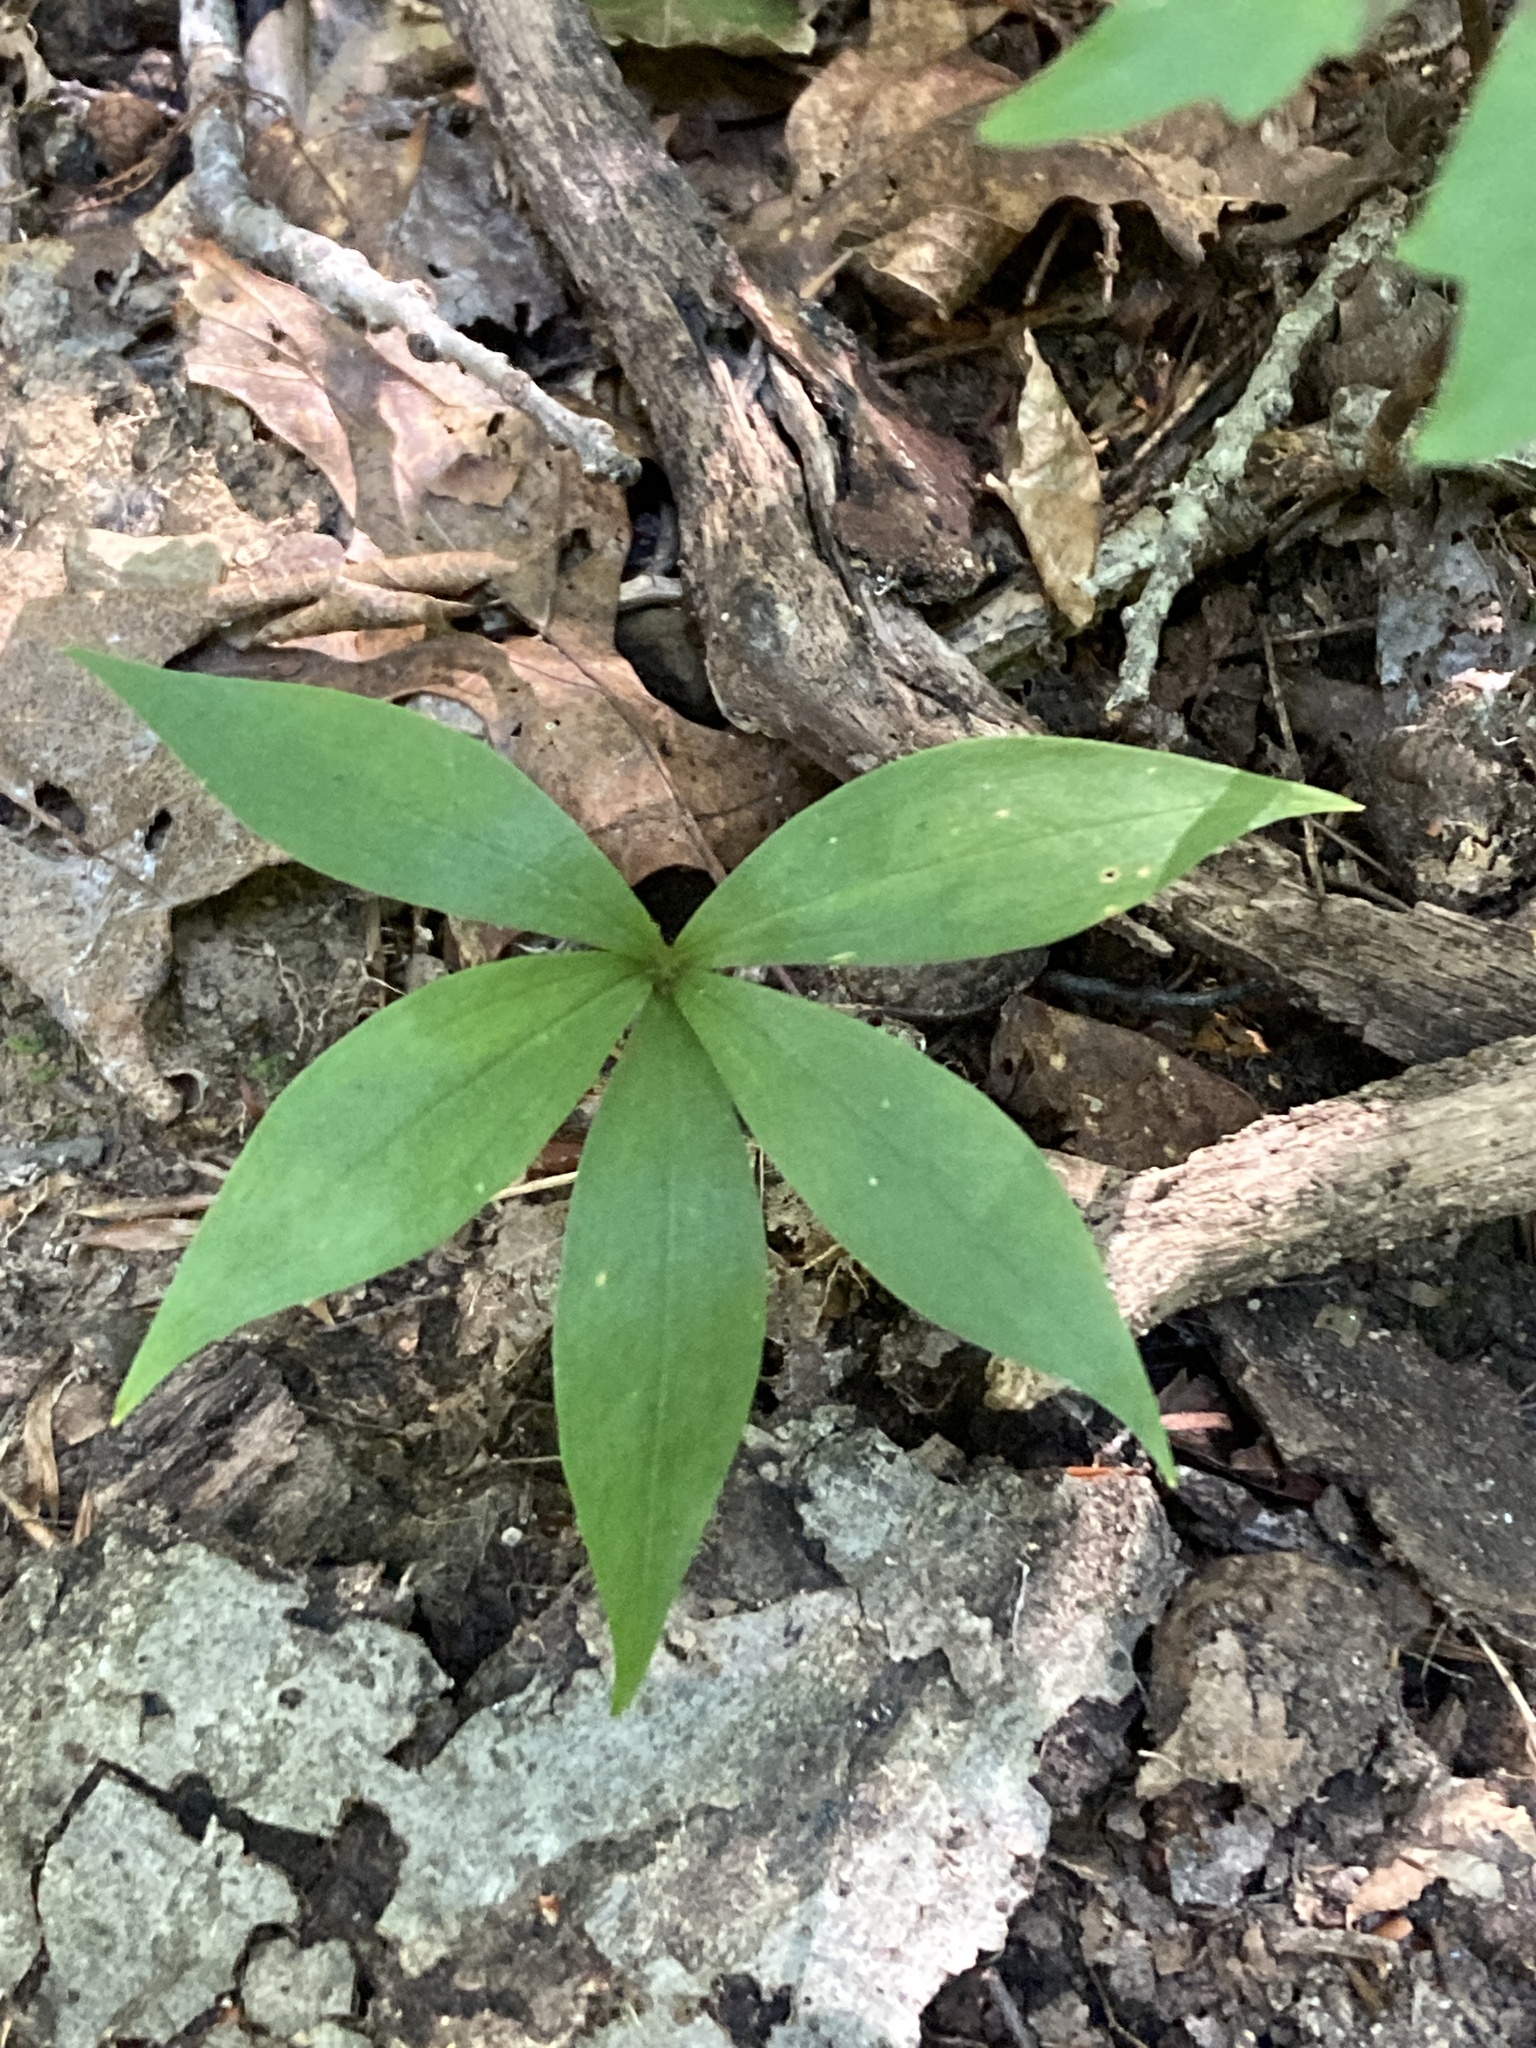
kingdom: Plantae
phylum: Tracheophyta
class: Liliopsida
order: Liliales
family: Liliaceae
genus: Medeola
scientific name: Medeola virginiana
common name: Indian cucumber-root
